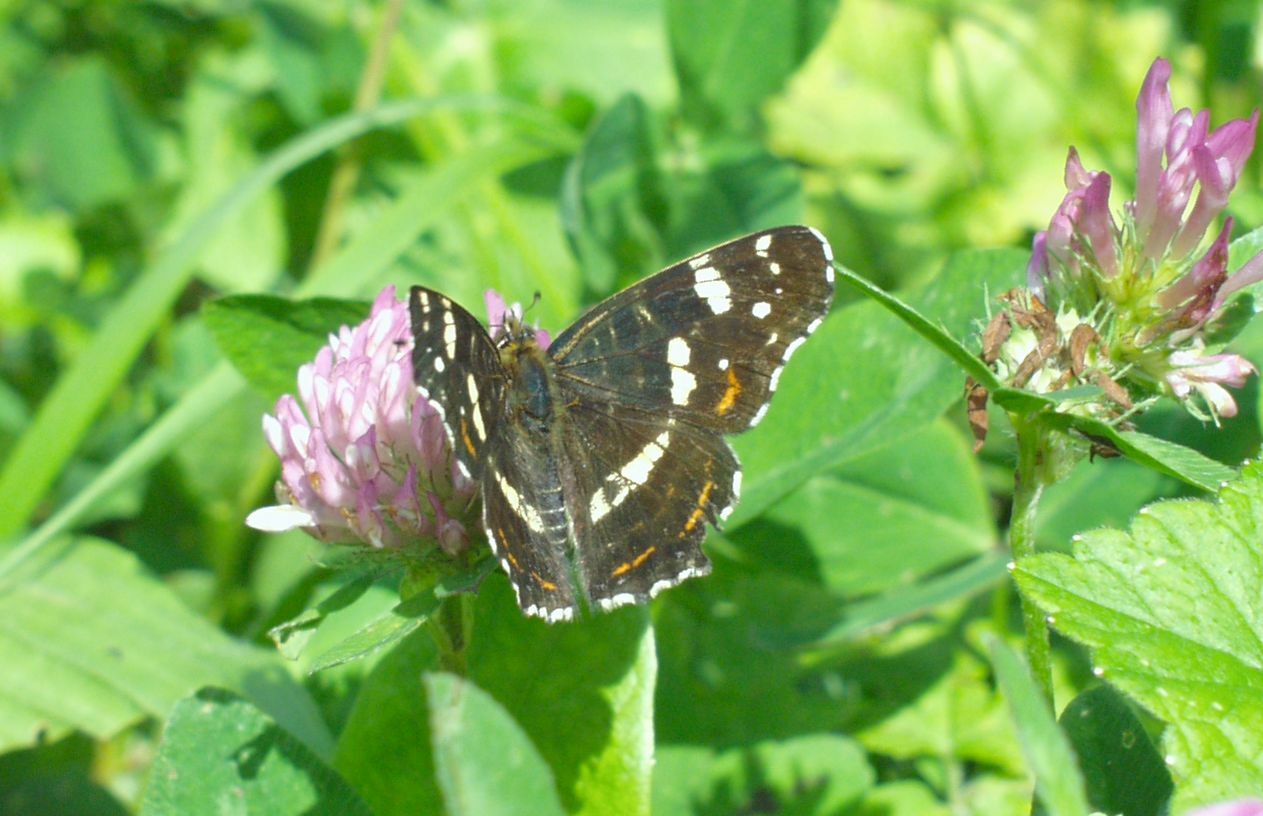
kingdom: Animalia
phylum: Arthropoda
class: Insecta
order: Lepidoptera
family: Nymphalidae
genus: Araschnia
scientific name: Araschnia levana
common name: Map butterfly
